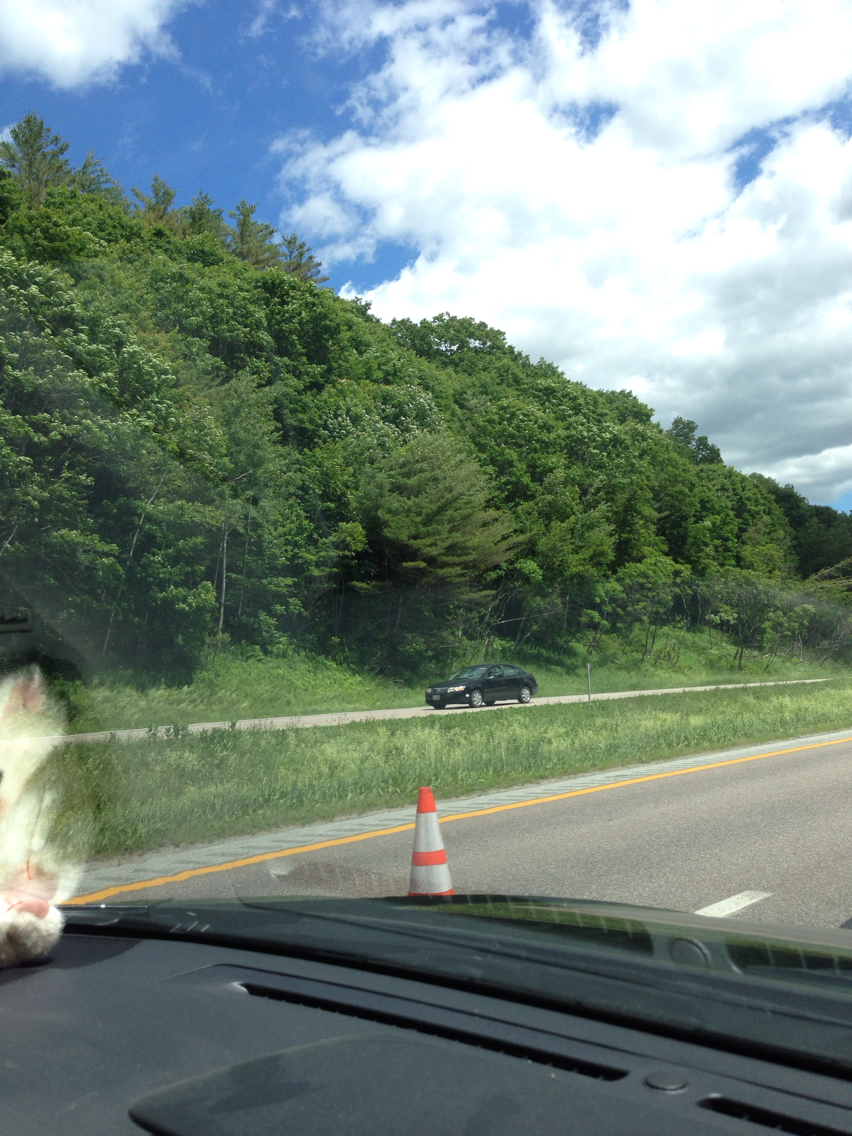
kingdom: Plantae
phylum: Tracheophyta
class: Pinopsida
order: Pinales
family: Pinaceae
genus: Pinus
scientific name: Pinus strobus
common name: Weymouth pine
